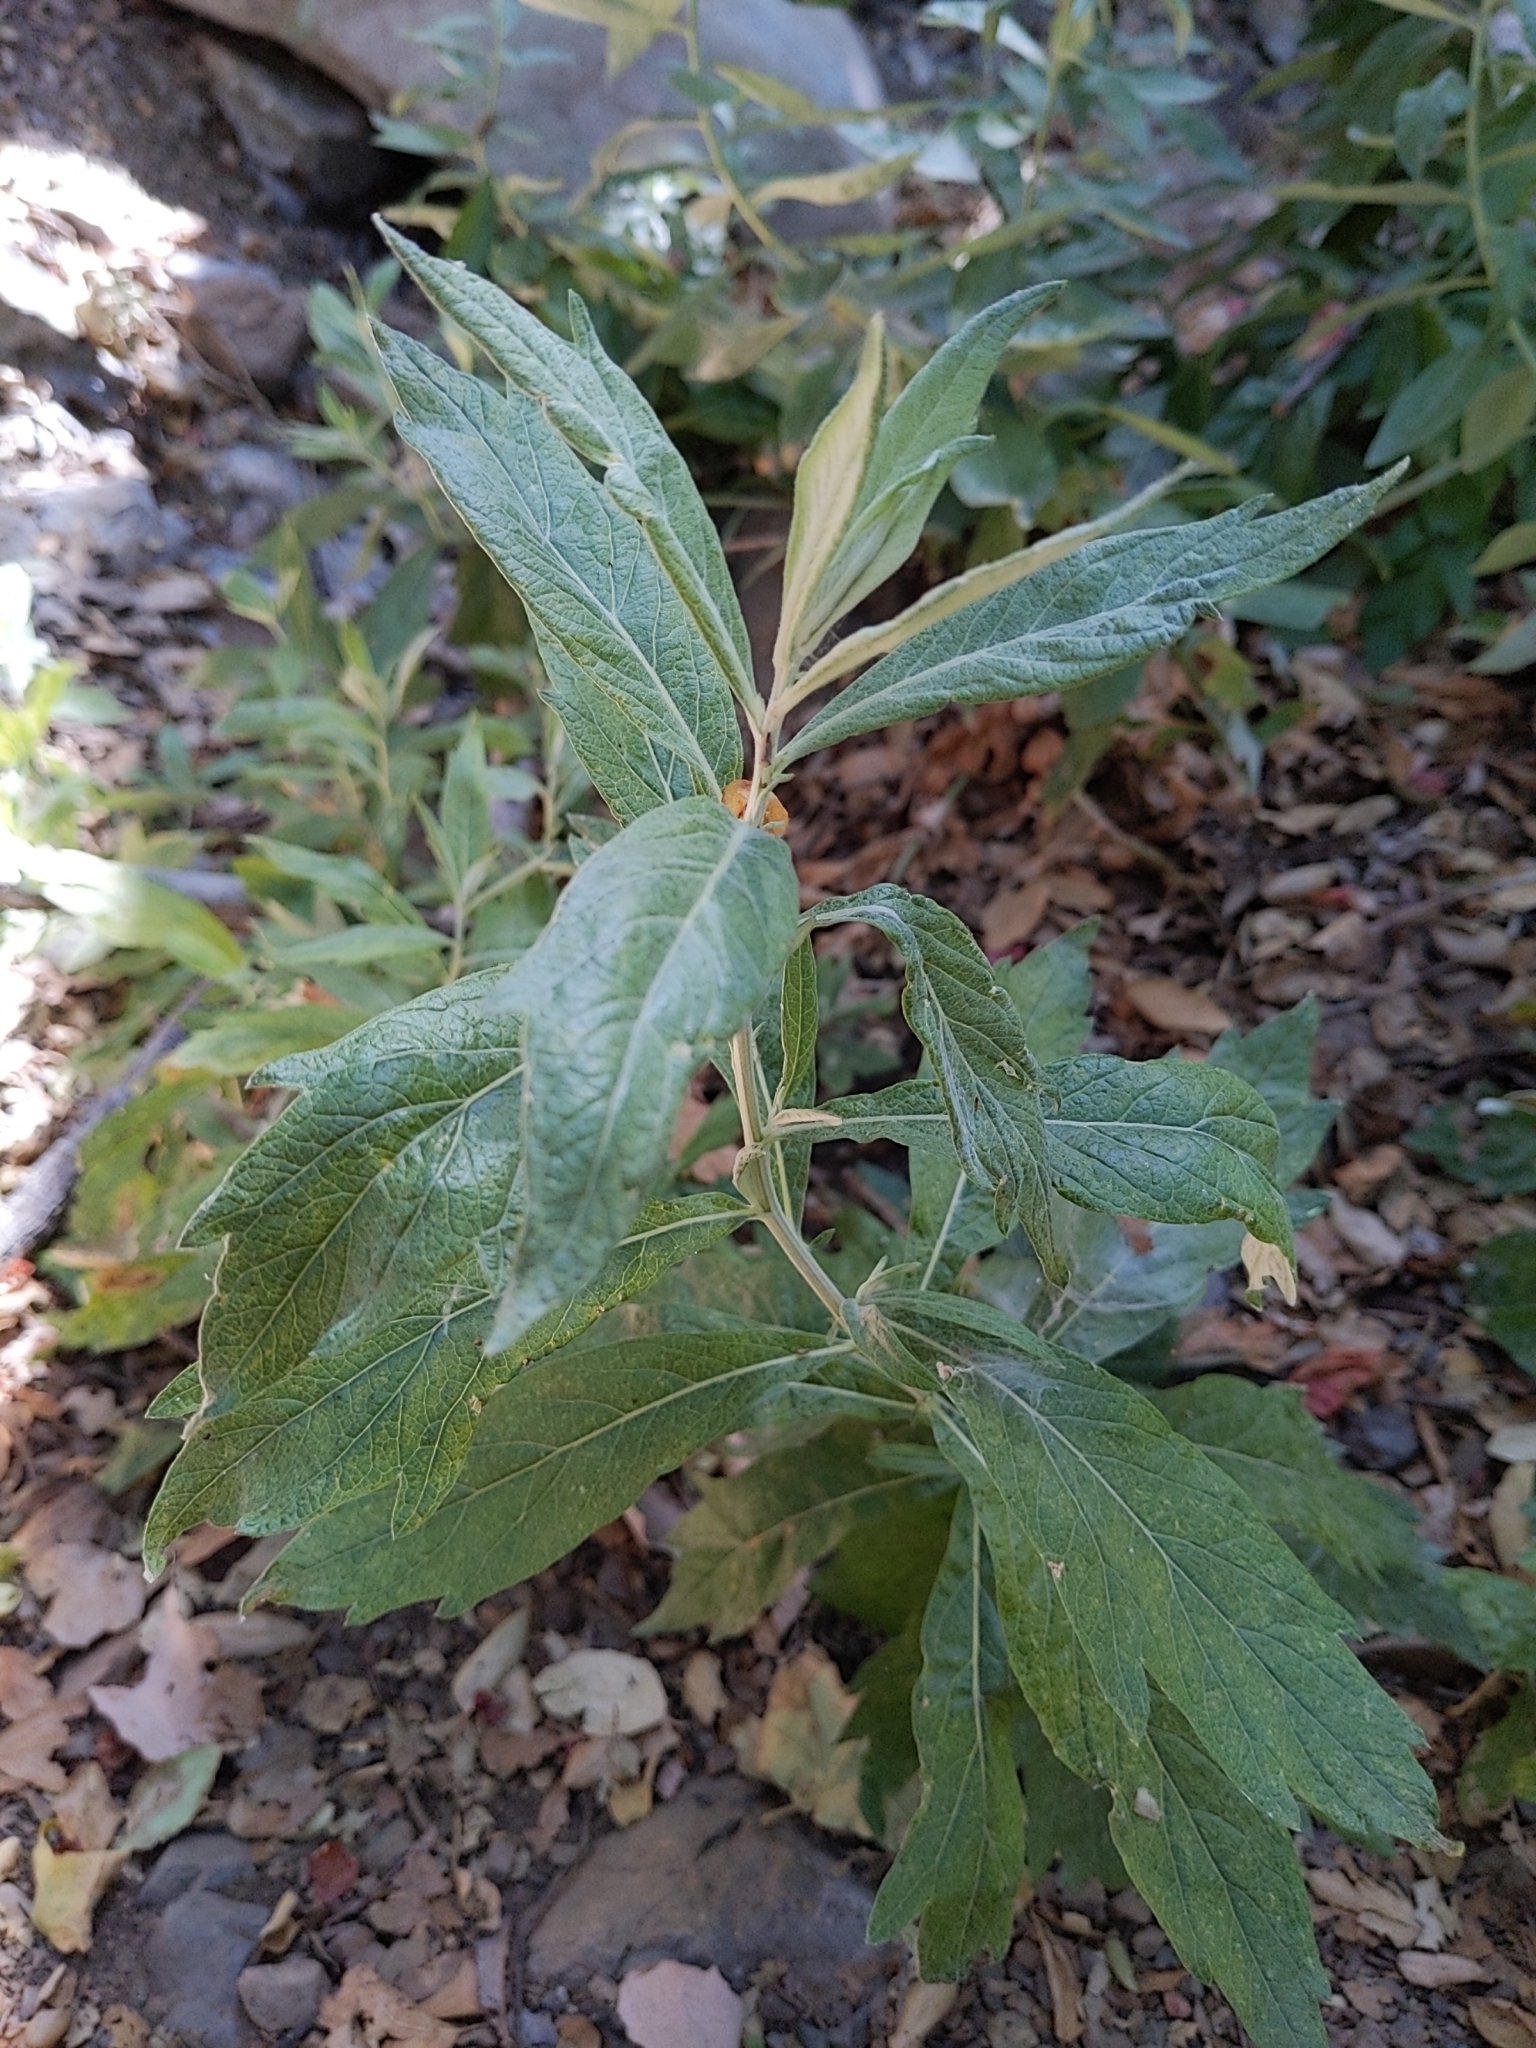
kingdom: Plantae
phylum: Tracheophyta
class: Magnoliopsida
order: Asterales
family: Asteraceae
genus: Artemisia
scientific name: Artemisia douglasiana
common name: Northwest mugwort
